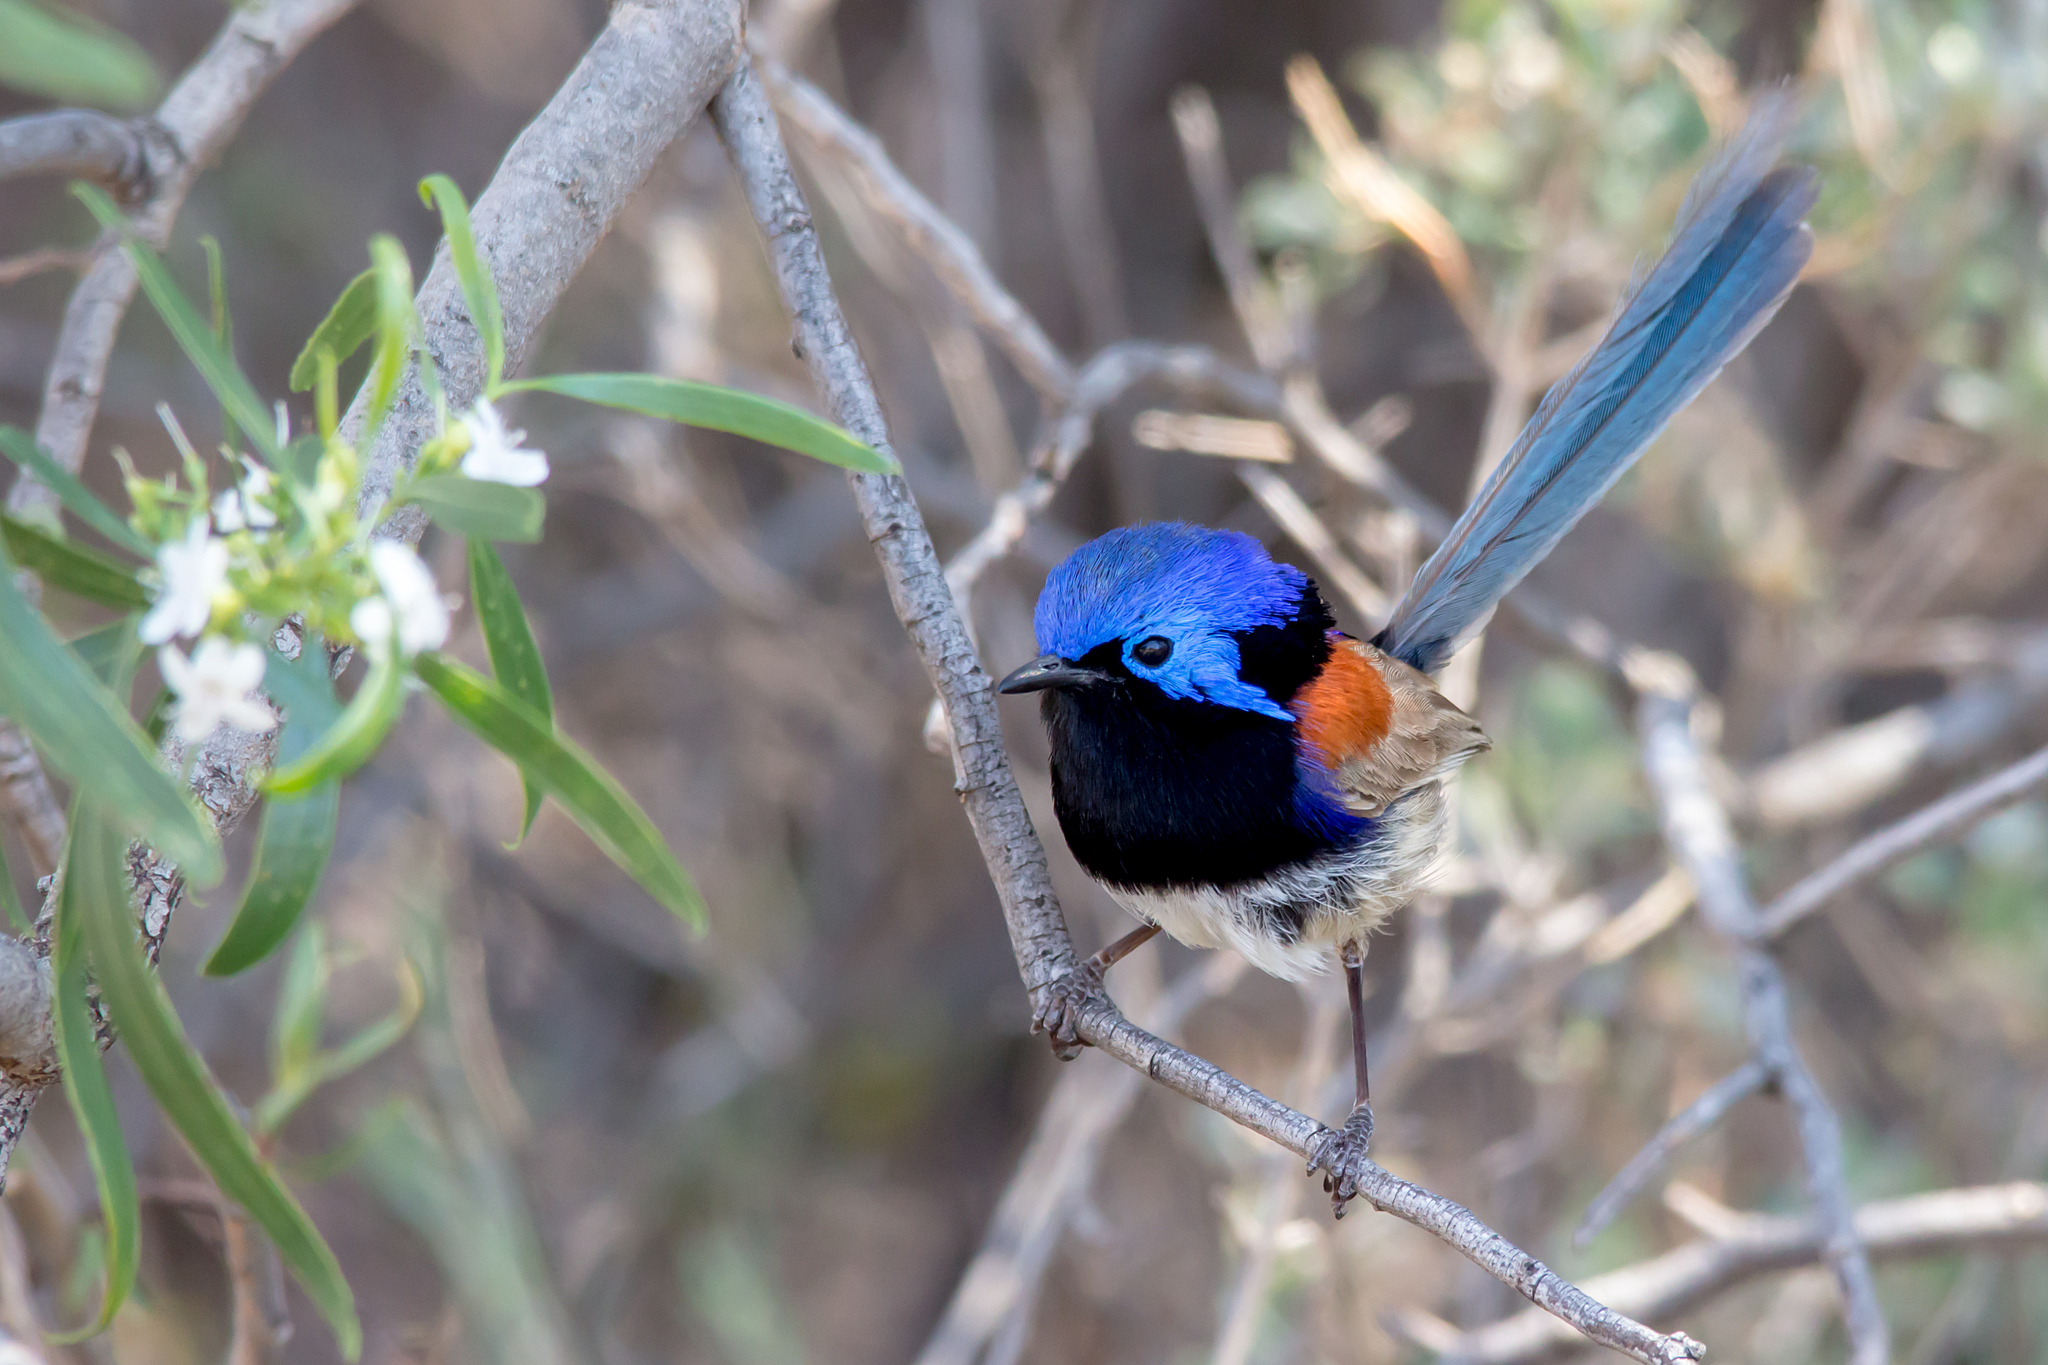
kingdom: Animalia
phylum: Chordata
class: Aves
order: Passeriformes
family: Maluridae
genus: Malurus
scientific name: Malurus assimilis
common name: Purple-backed fairywren
